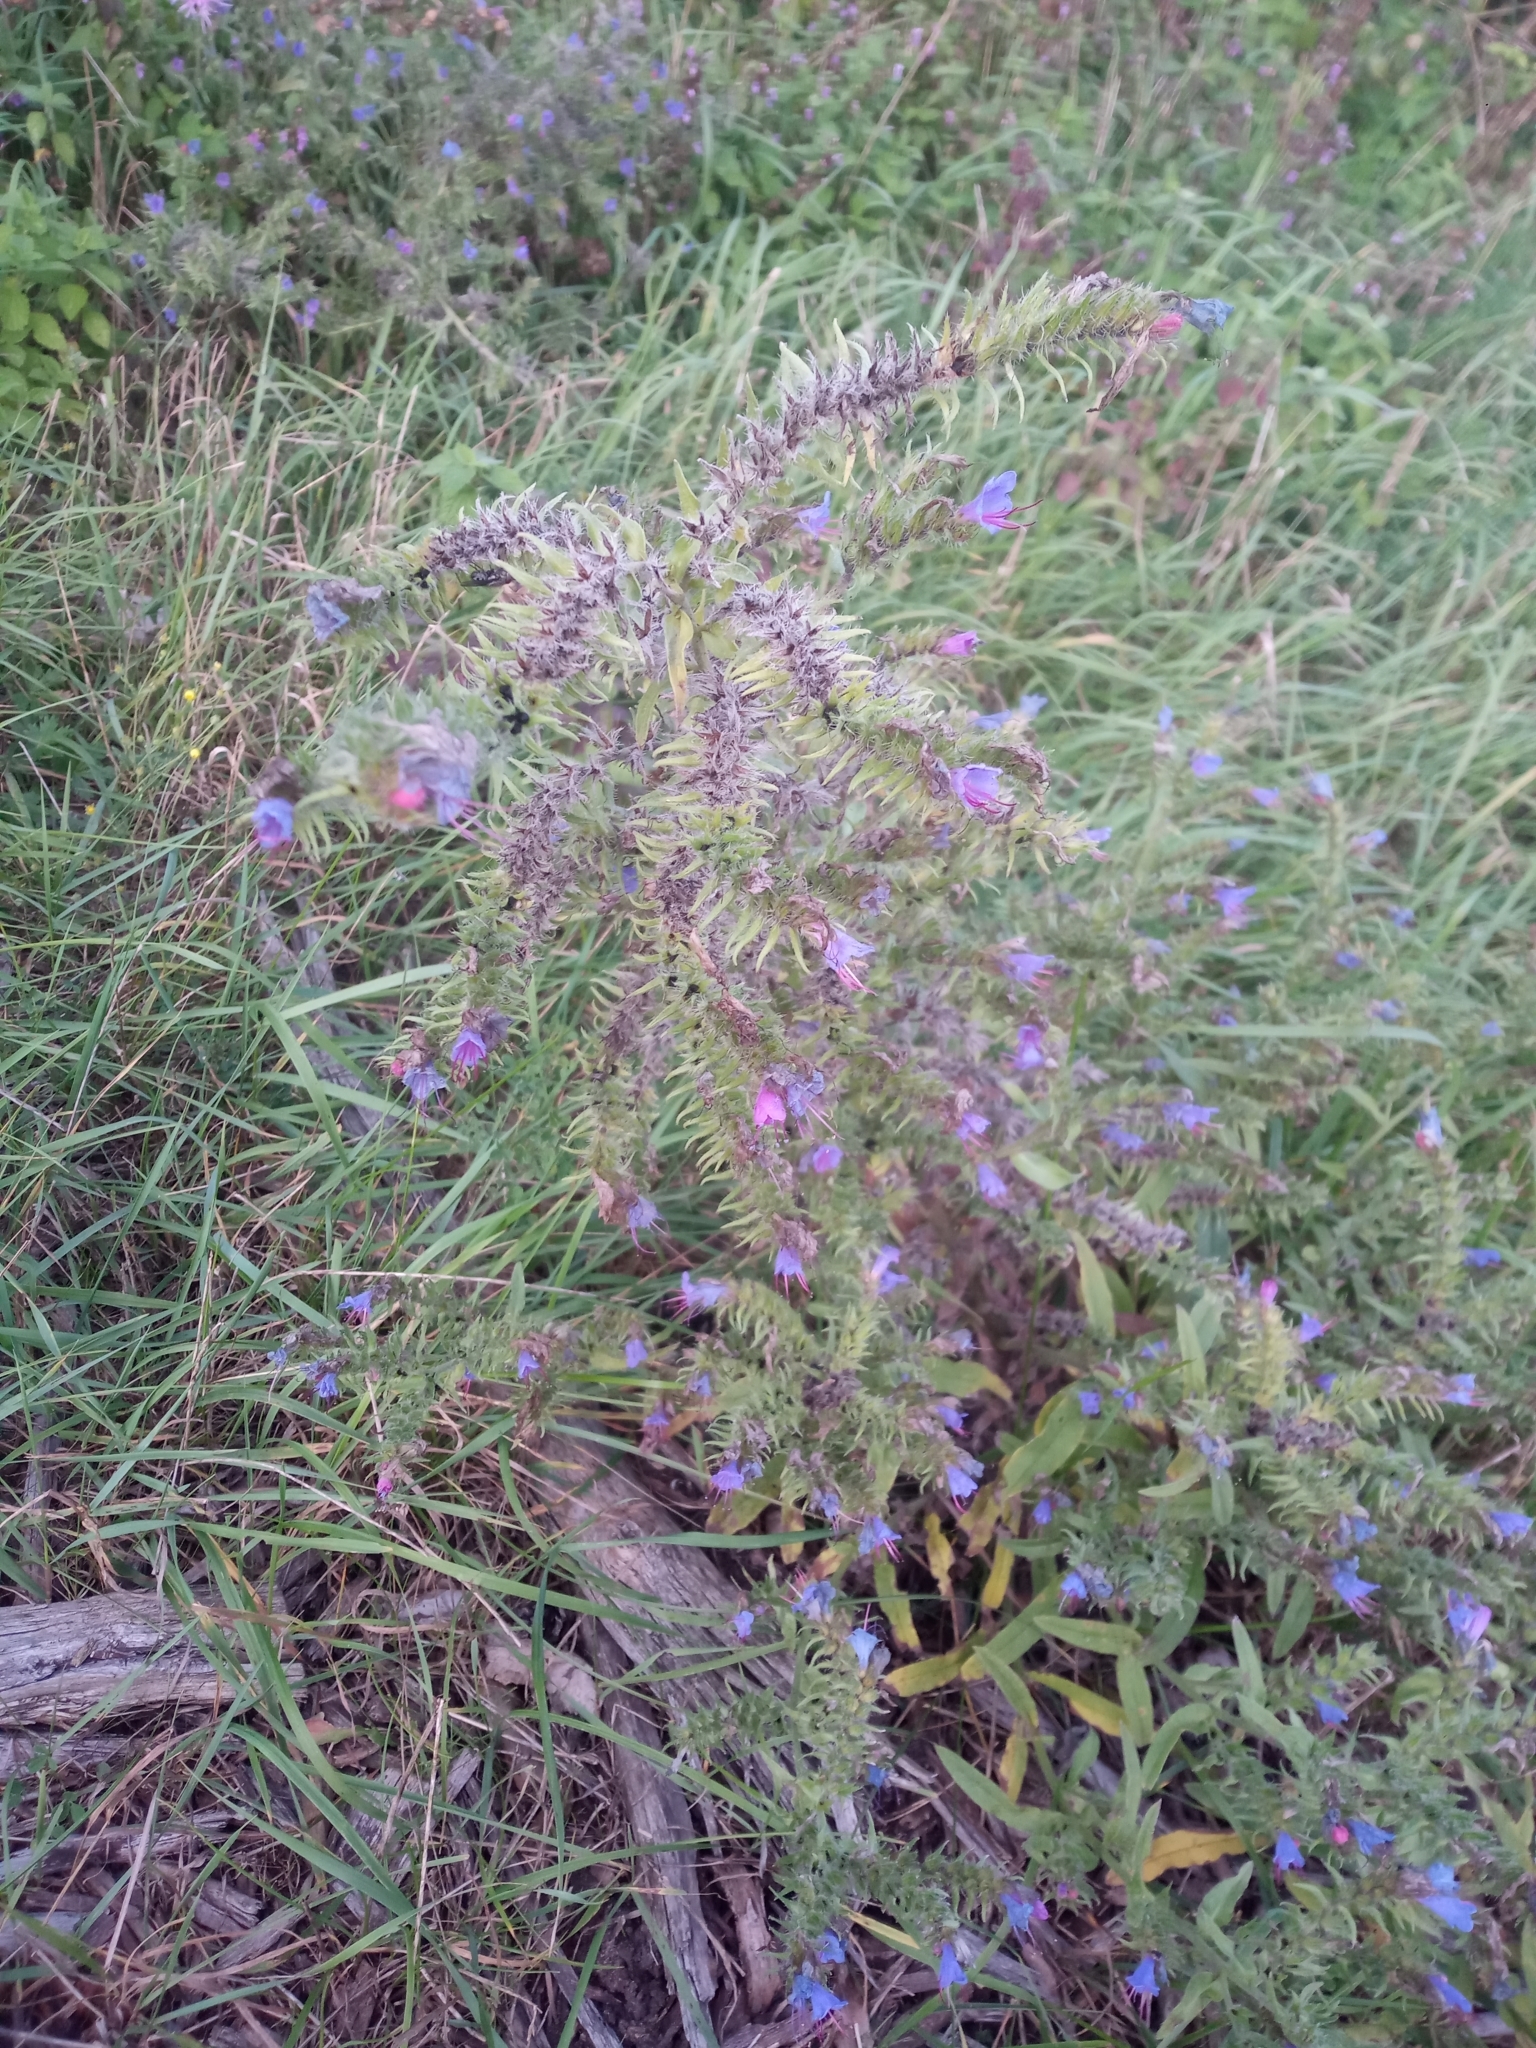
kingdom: Plantae
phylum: Tracheophyta
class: Magnoliopsida
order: Boraginales
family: Boraginaceae
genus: Echium
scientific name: Echium vulgare
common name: Common viper's bugloss
